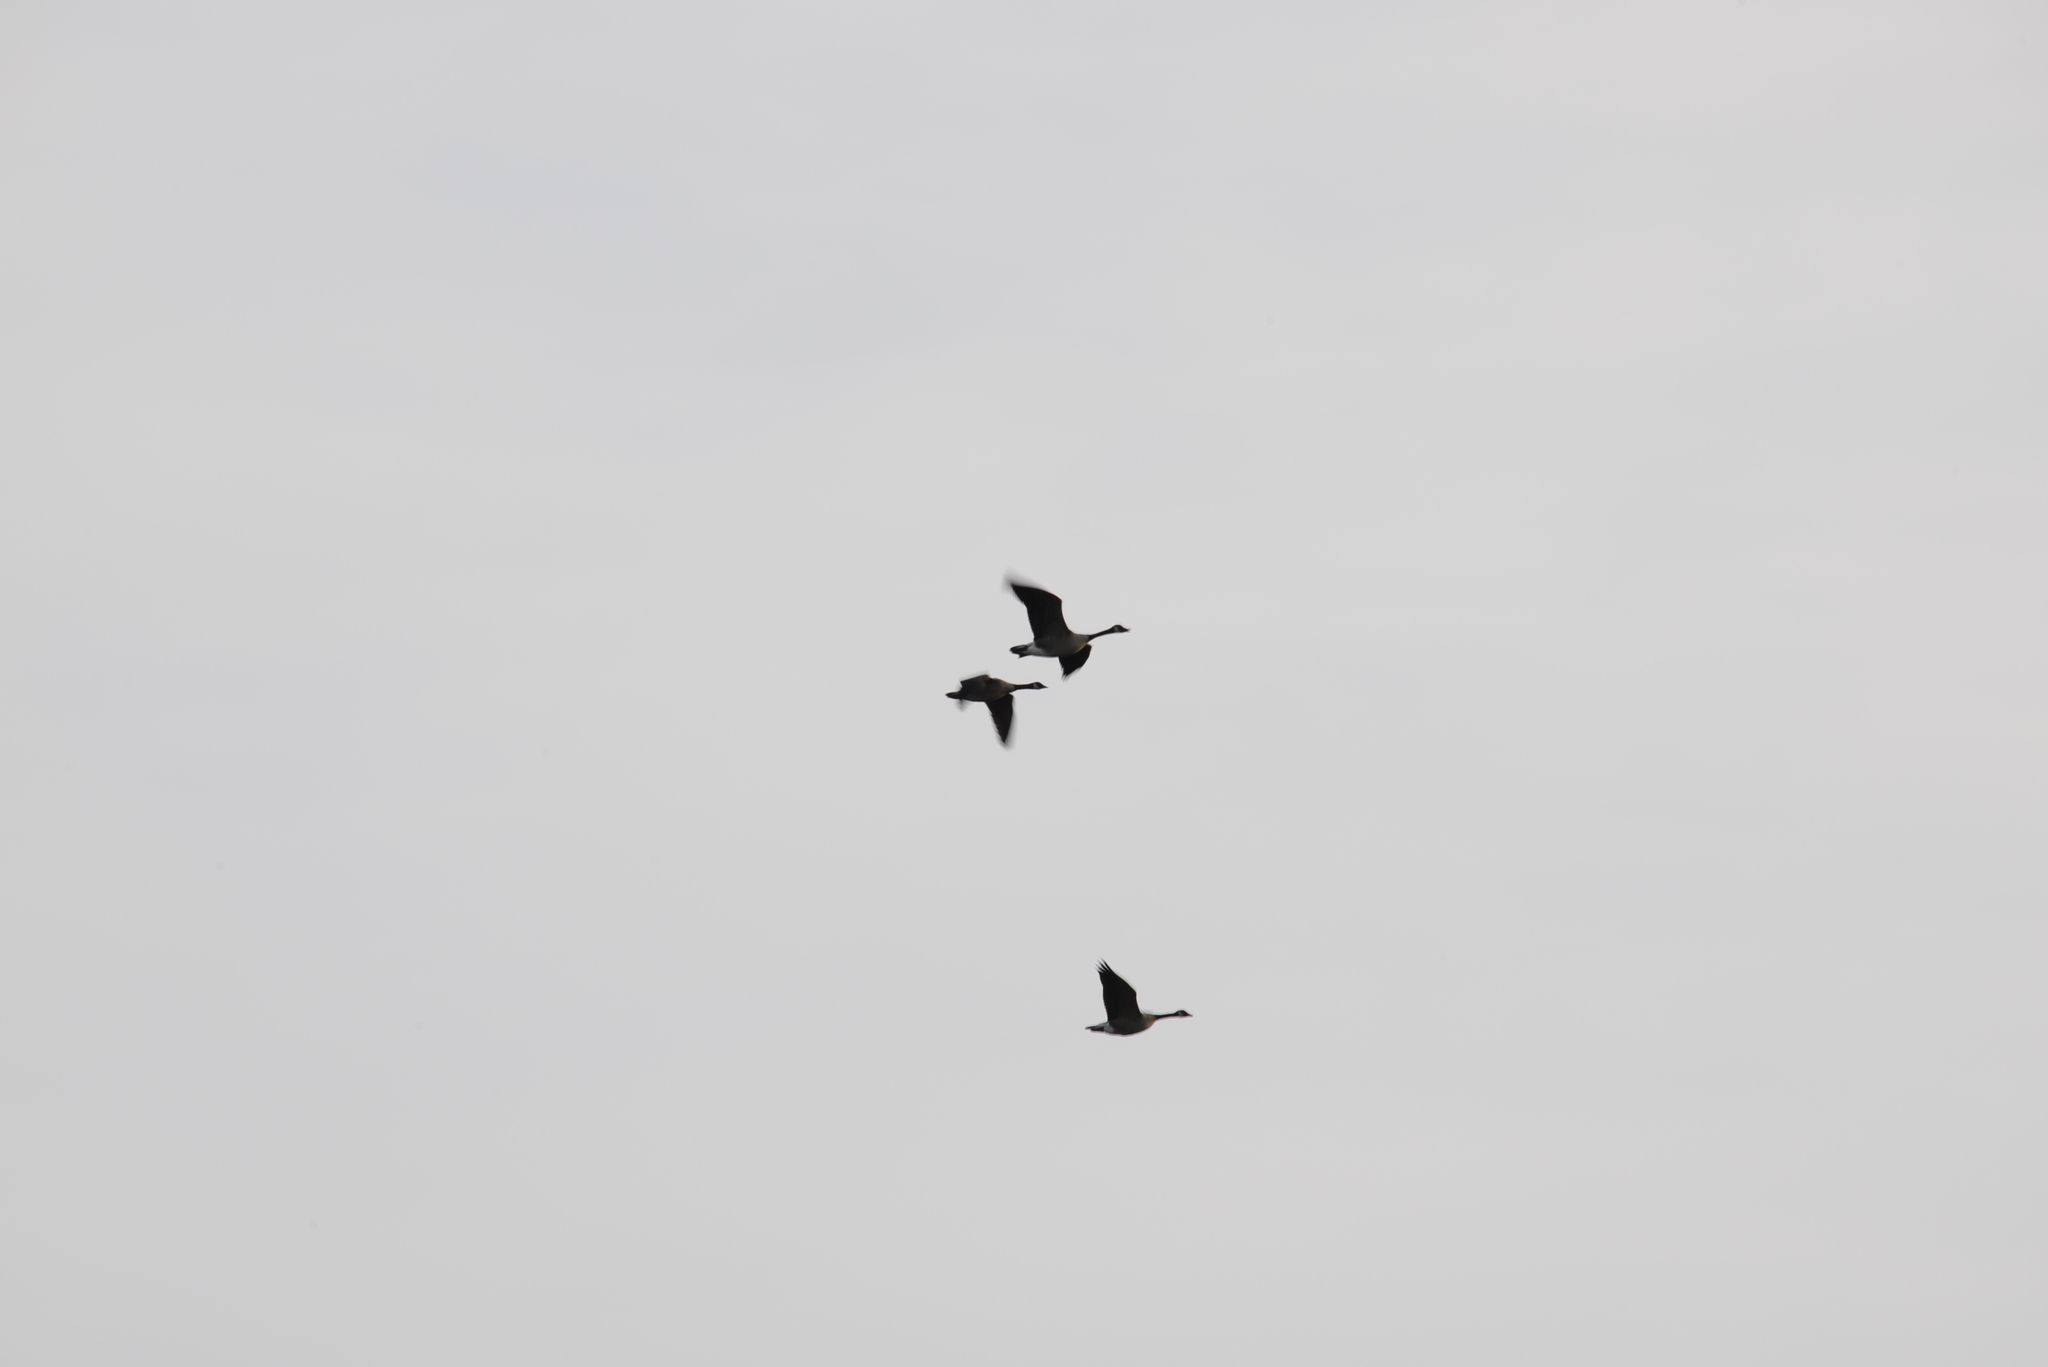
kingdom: Animalia
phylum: Chordata
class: Aves
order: Anseriformes
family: Anatidae
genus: Branta
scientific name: Branta canadensis
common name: Canada goose
